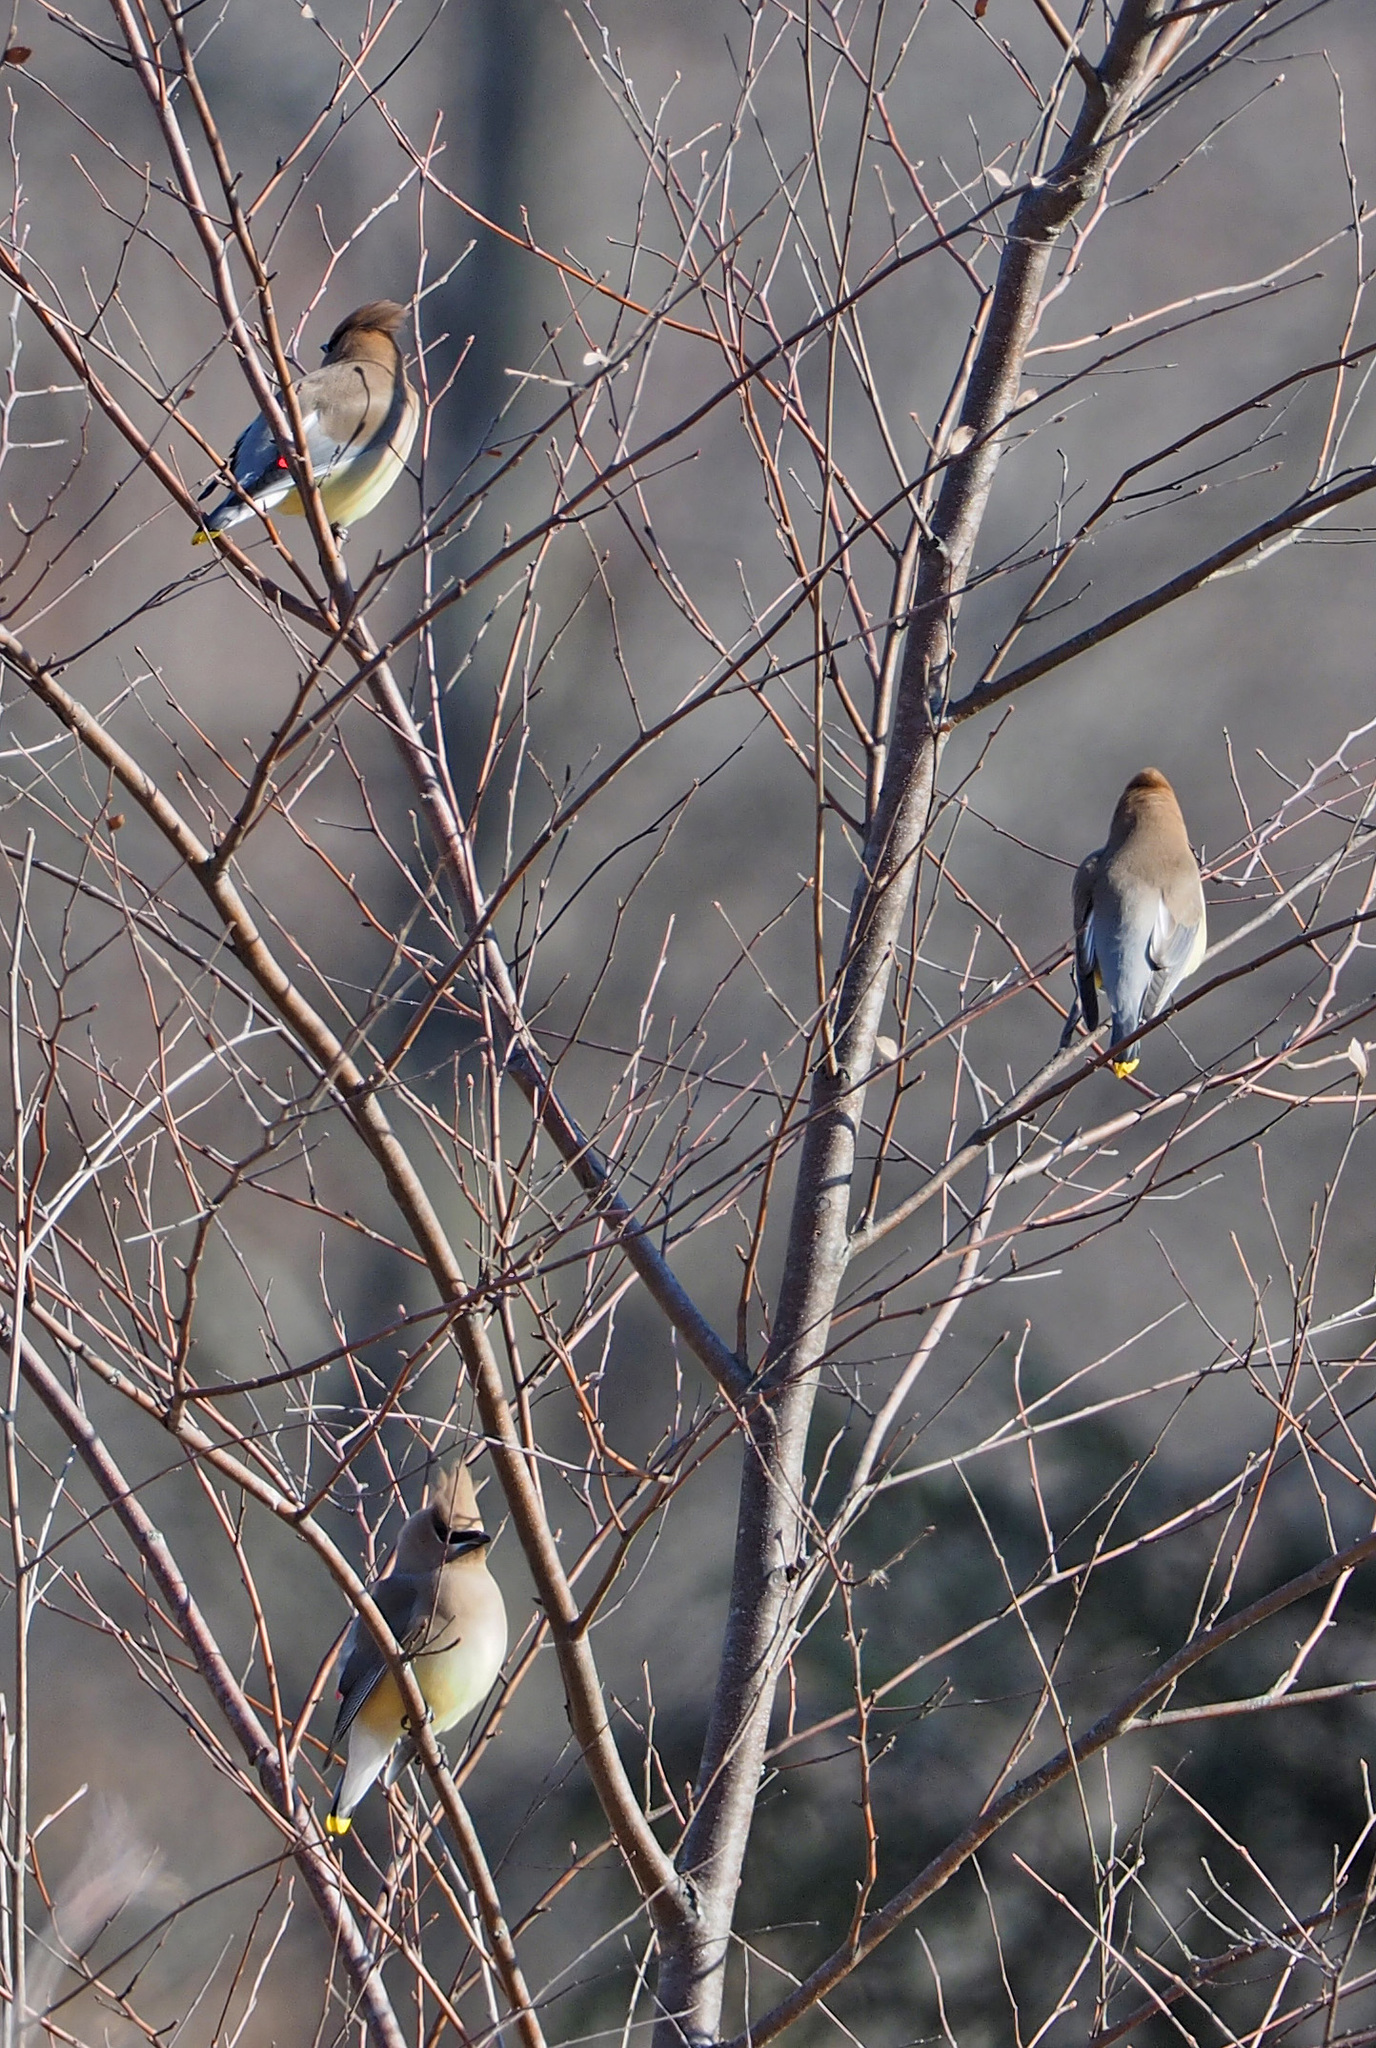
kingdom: Animalia
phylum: Chordata
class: Aves
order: Passeriformes
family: Bombycillidae
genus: Bombycilla
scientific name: Bombycilla cedrorum
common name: Cedar waxwing
